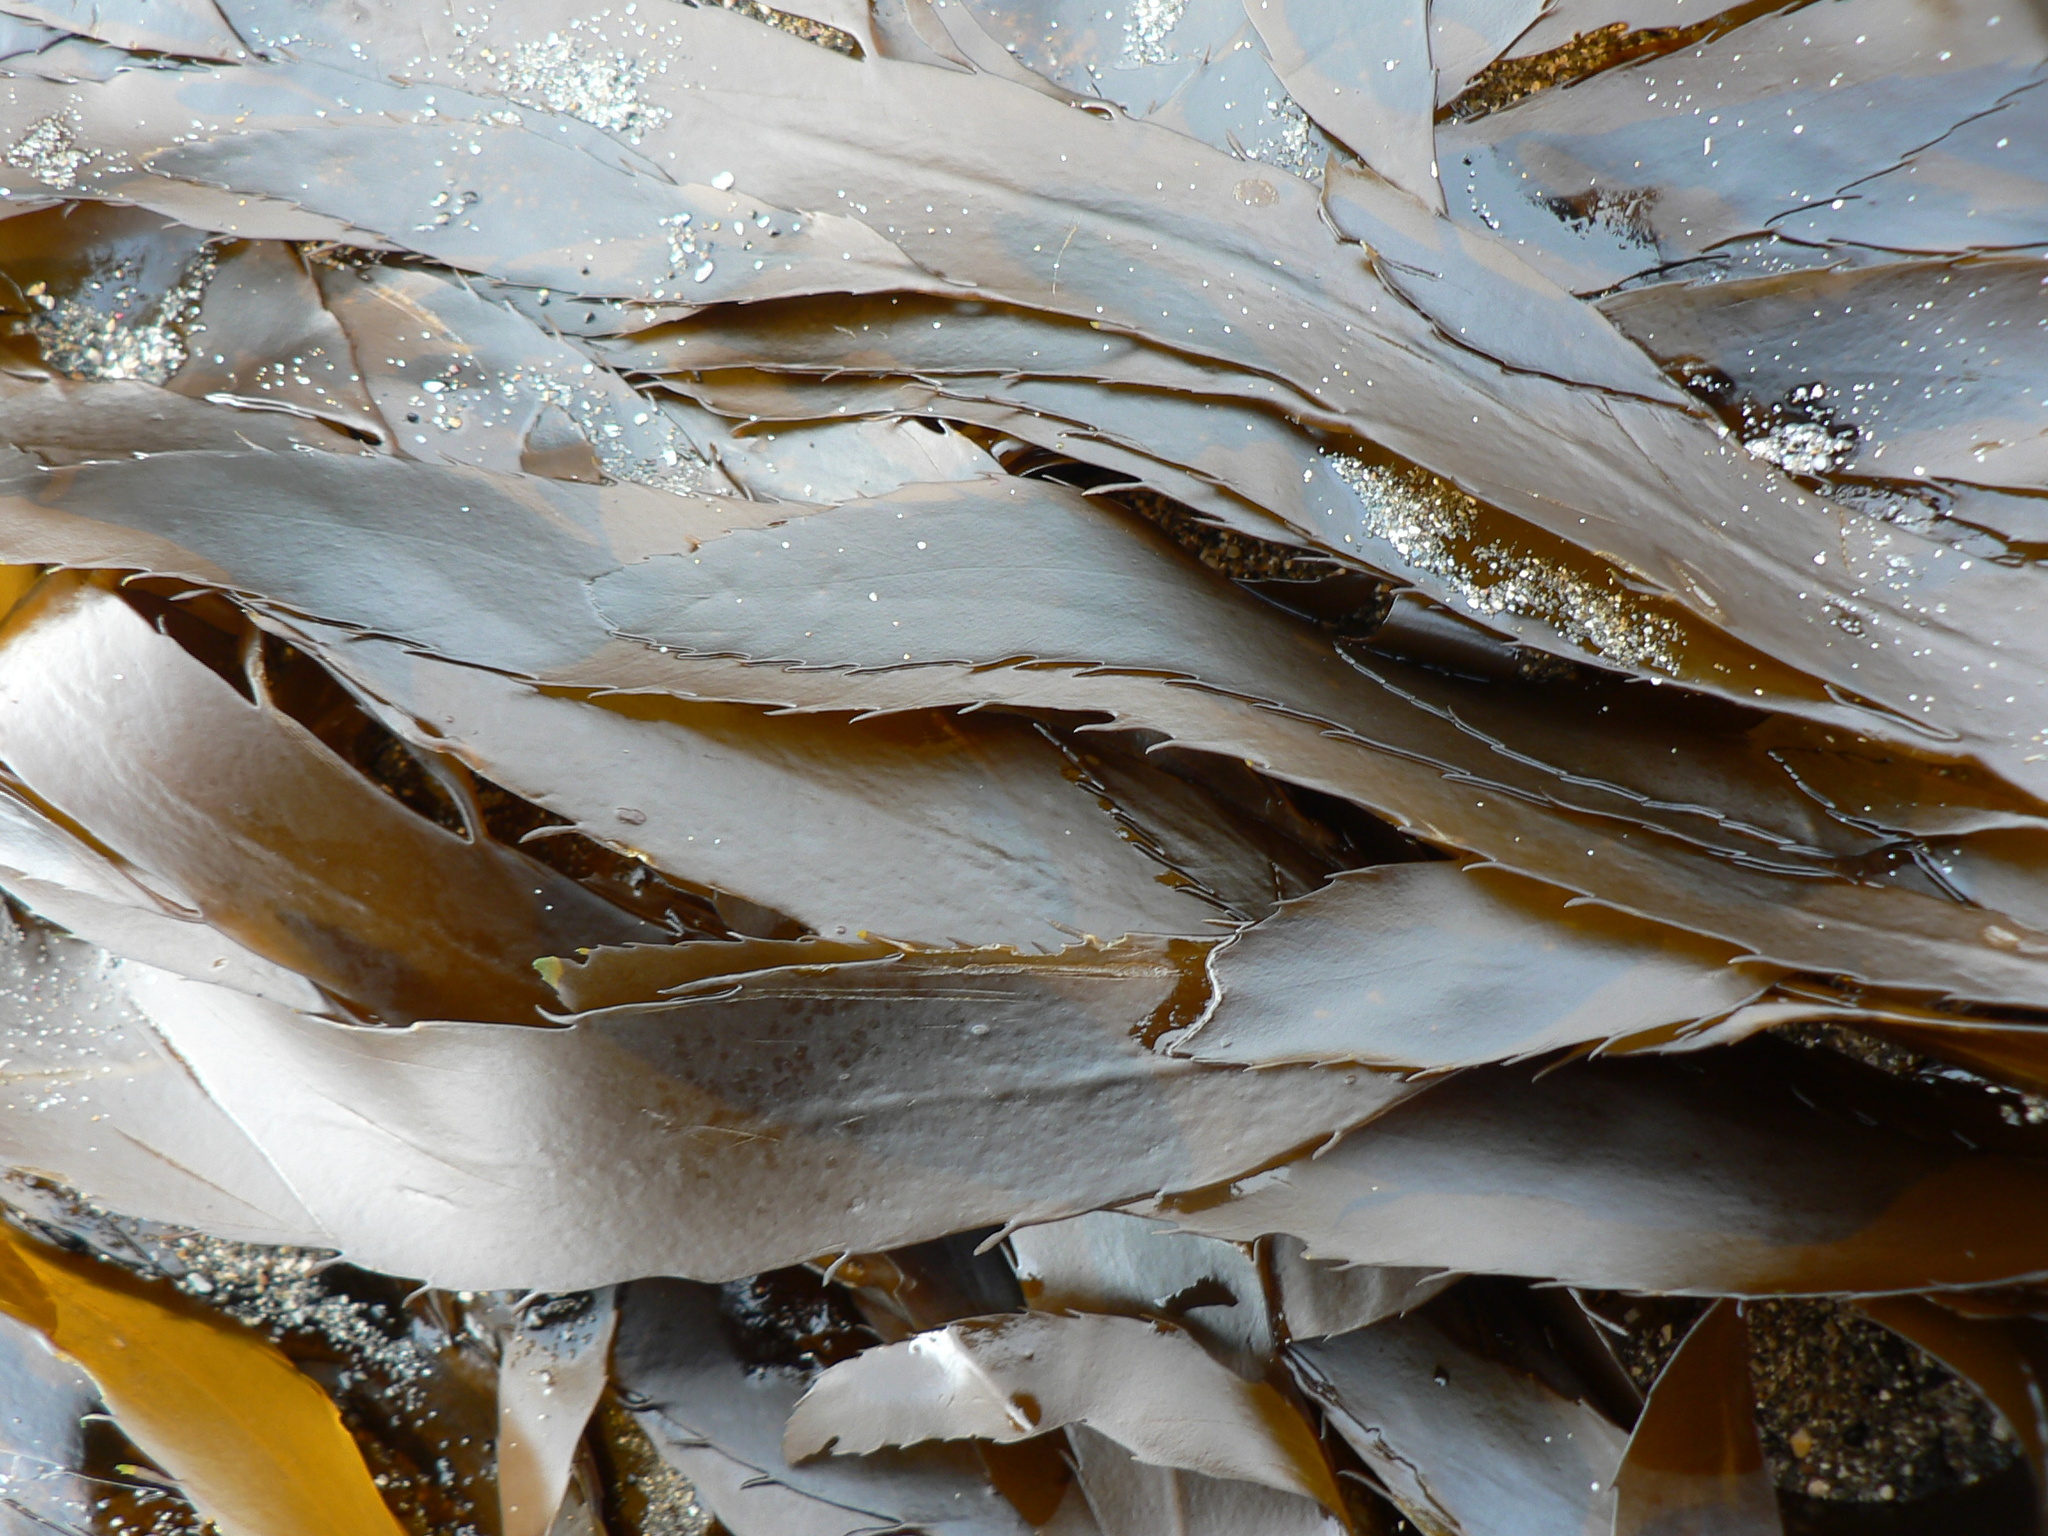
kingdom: Chromista
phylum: Ochrophyta
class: Phaeophyceae
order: Desmarestiales
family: Desmarestiaceae
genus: Desmarestia
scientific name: Desmarestia ligulata
